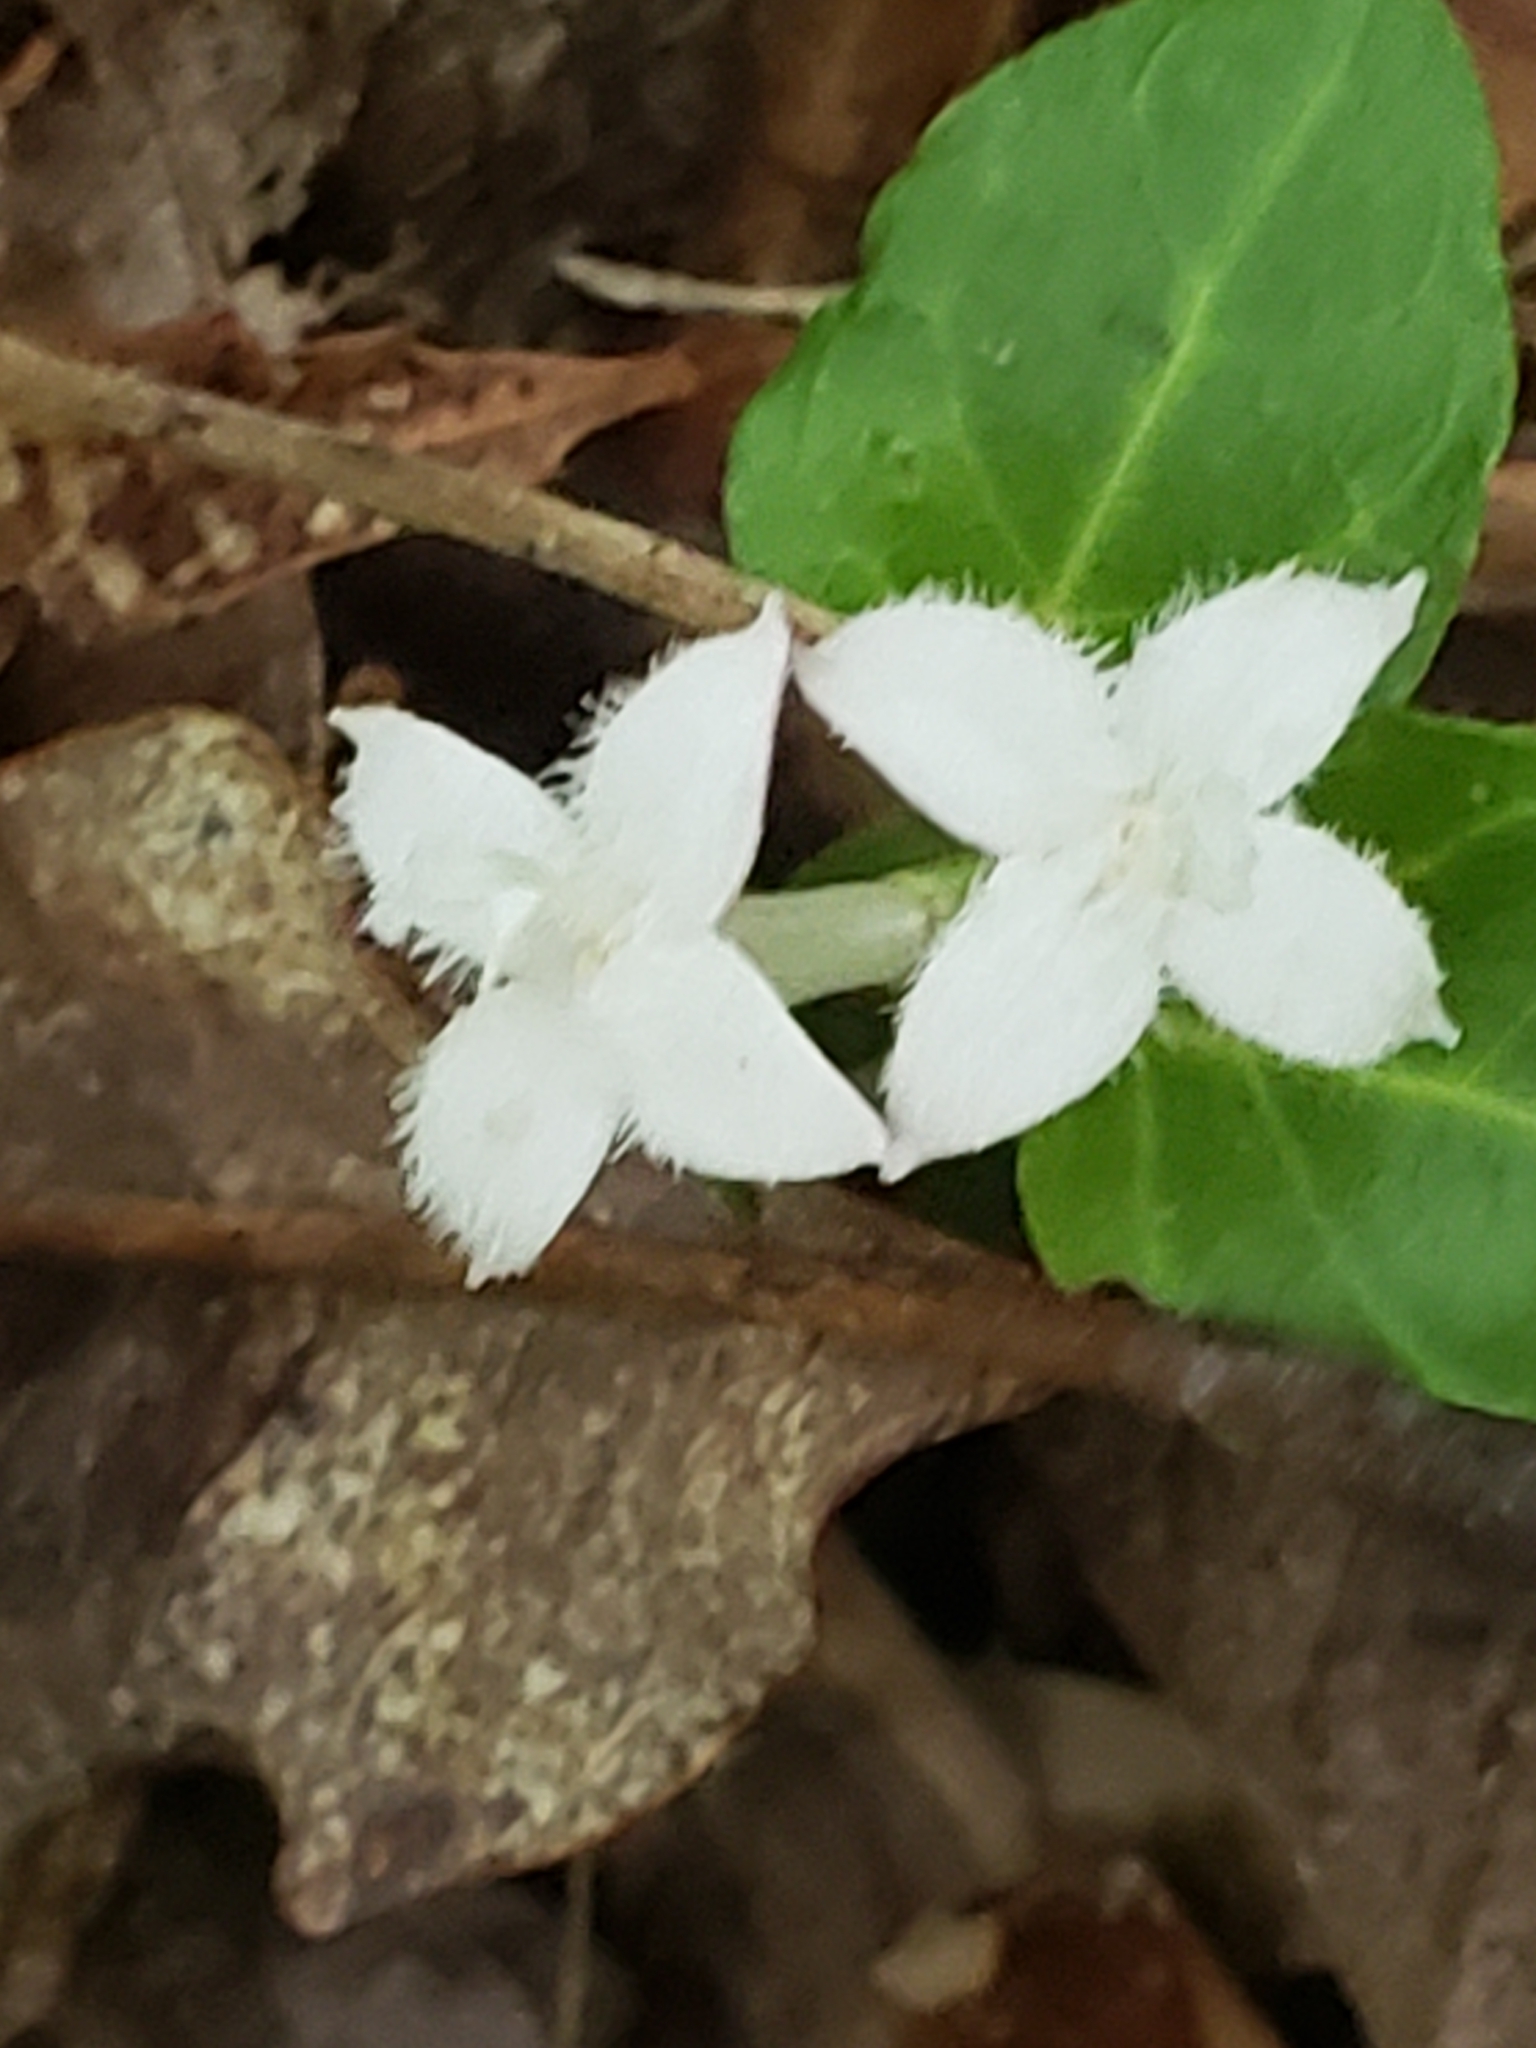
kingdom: Plantae
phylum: Tracheophyta
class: Magnoliopsida
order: Gentianales
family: Rubiaceae
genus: Mitchella
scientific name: Mitchella repens
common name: Partridge-berry
